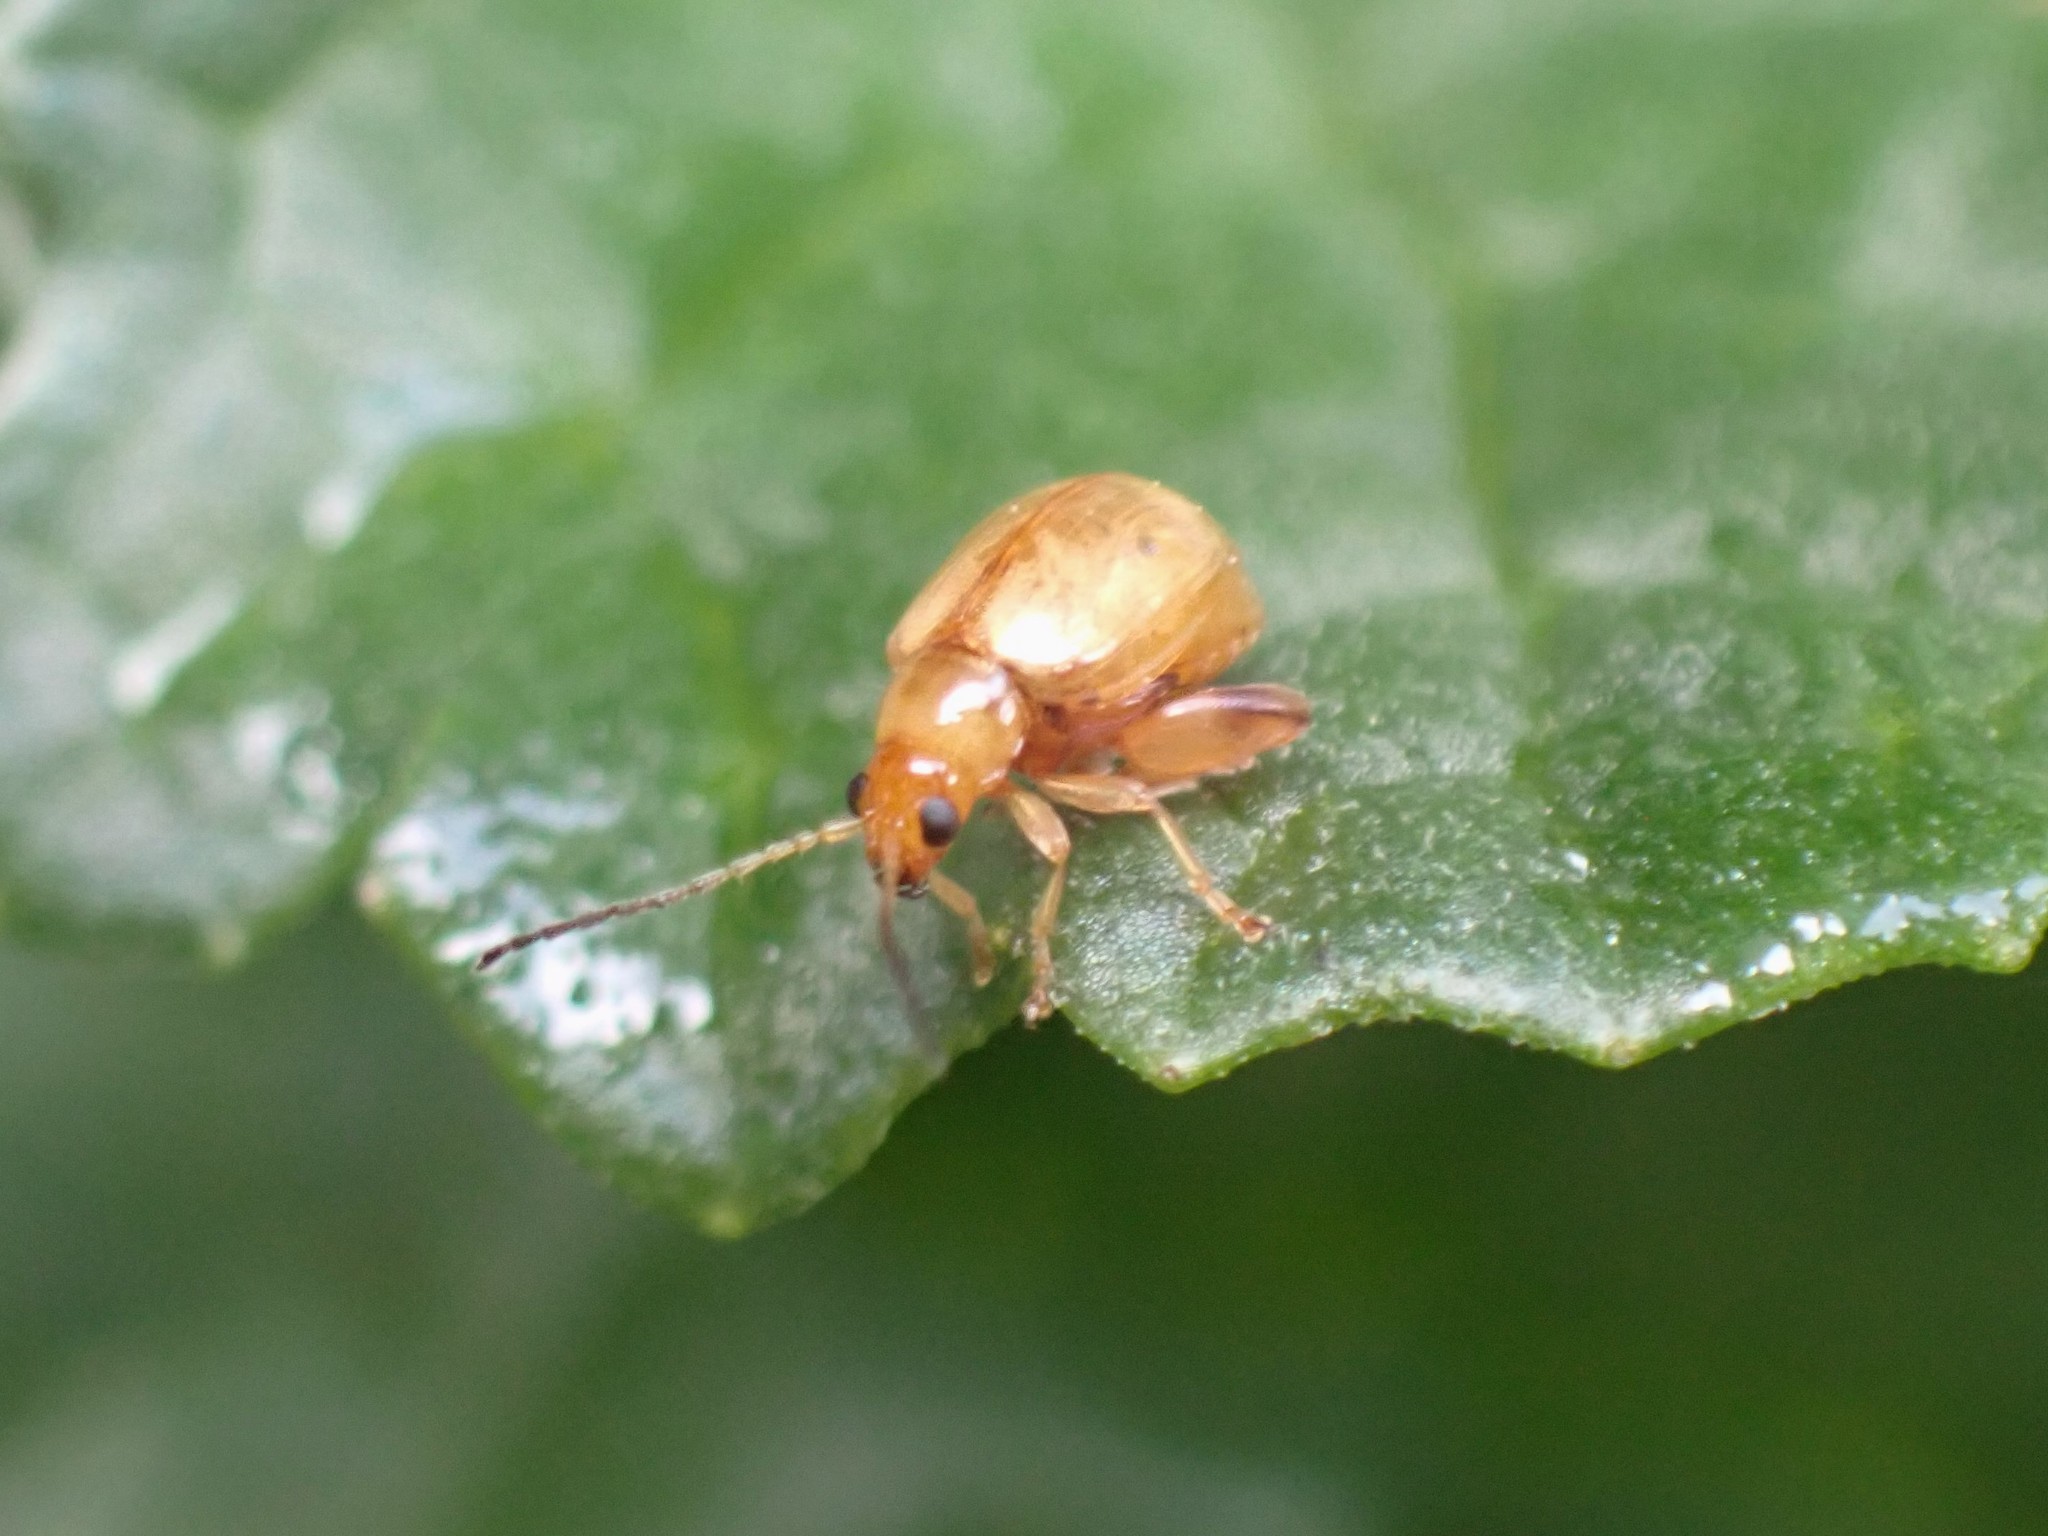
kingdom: Animalia
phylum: Arthropoda
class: Insecta
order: Coleoptera
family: Chrysomelidae
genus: Longitarsus
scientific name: Longitarsus jacobaeae
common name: Tansy ragwort flea beetle
